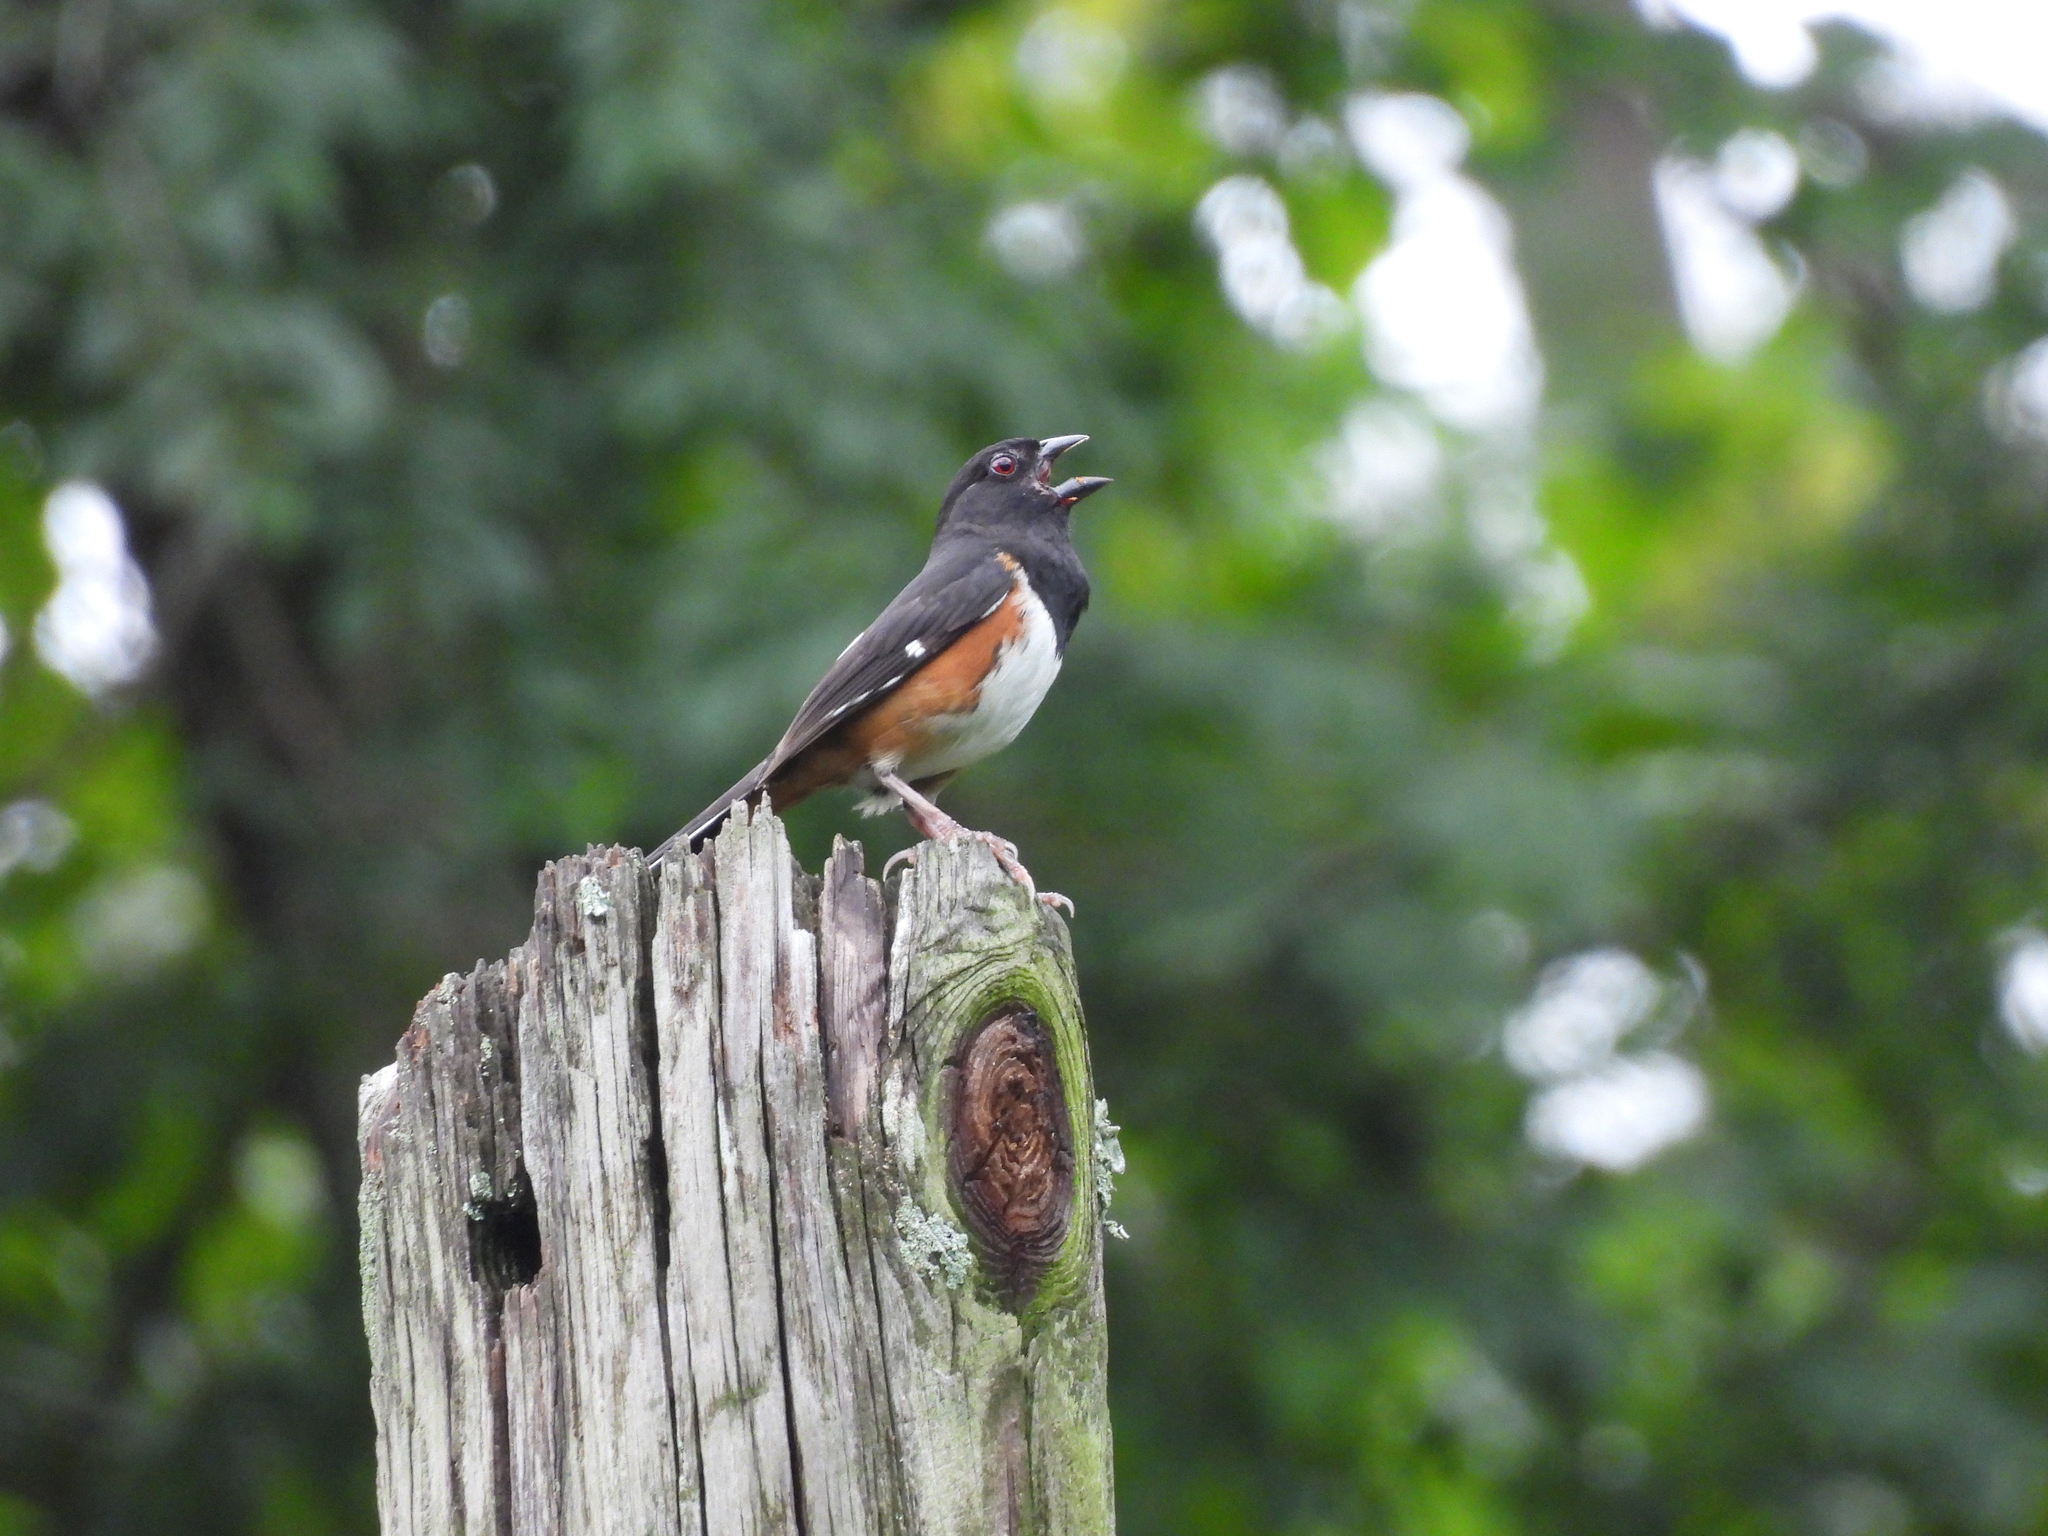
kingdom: Animalia
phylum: Chordata
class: Aves
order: Passeriformes
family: Passerellidae
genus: Pipilo
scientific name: Pipilo erythrophthalmus
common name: Eastern towhee
